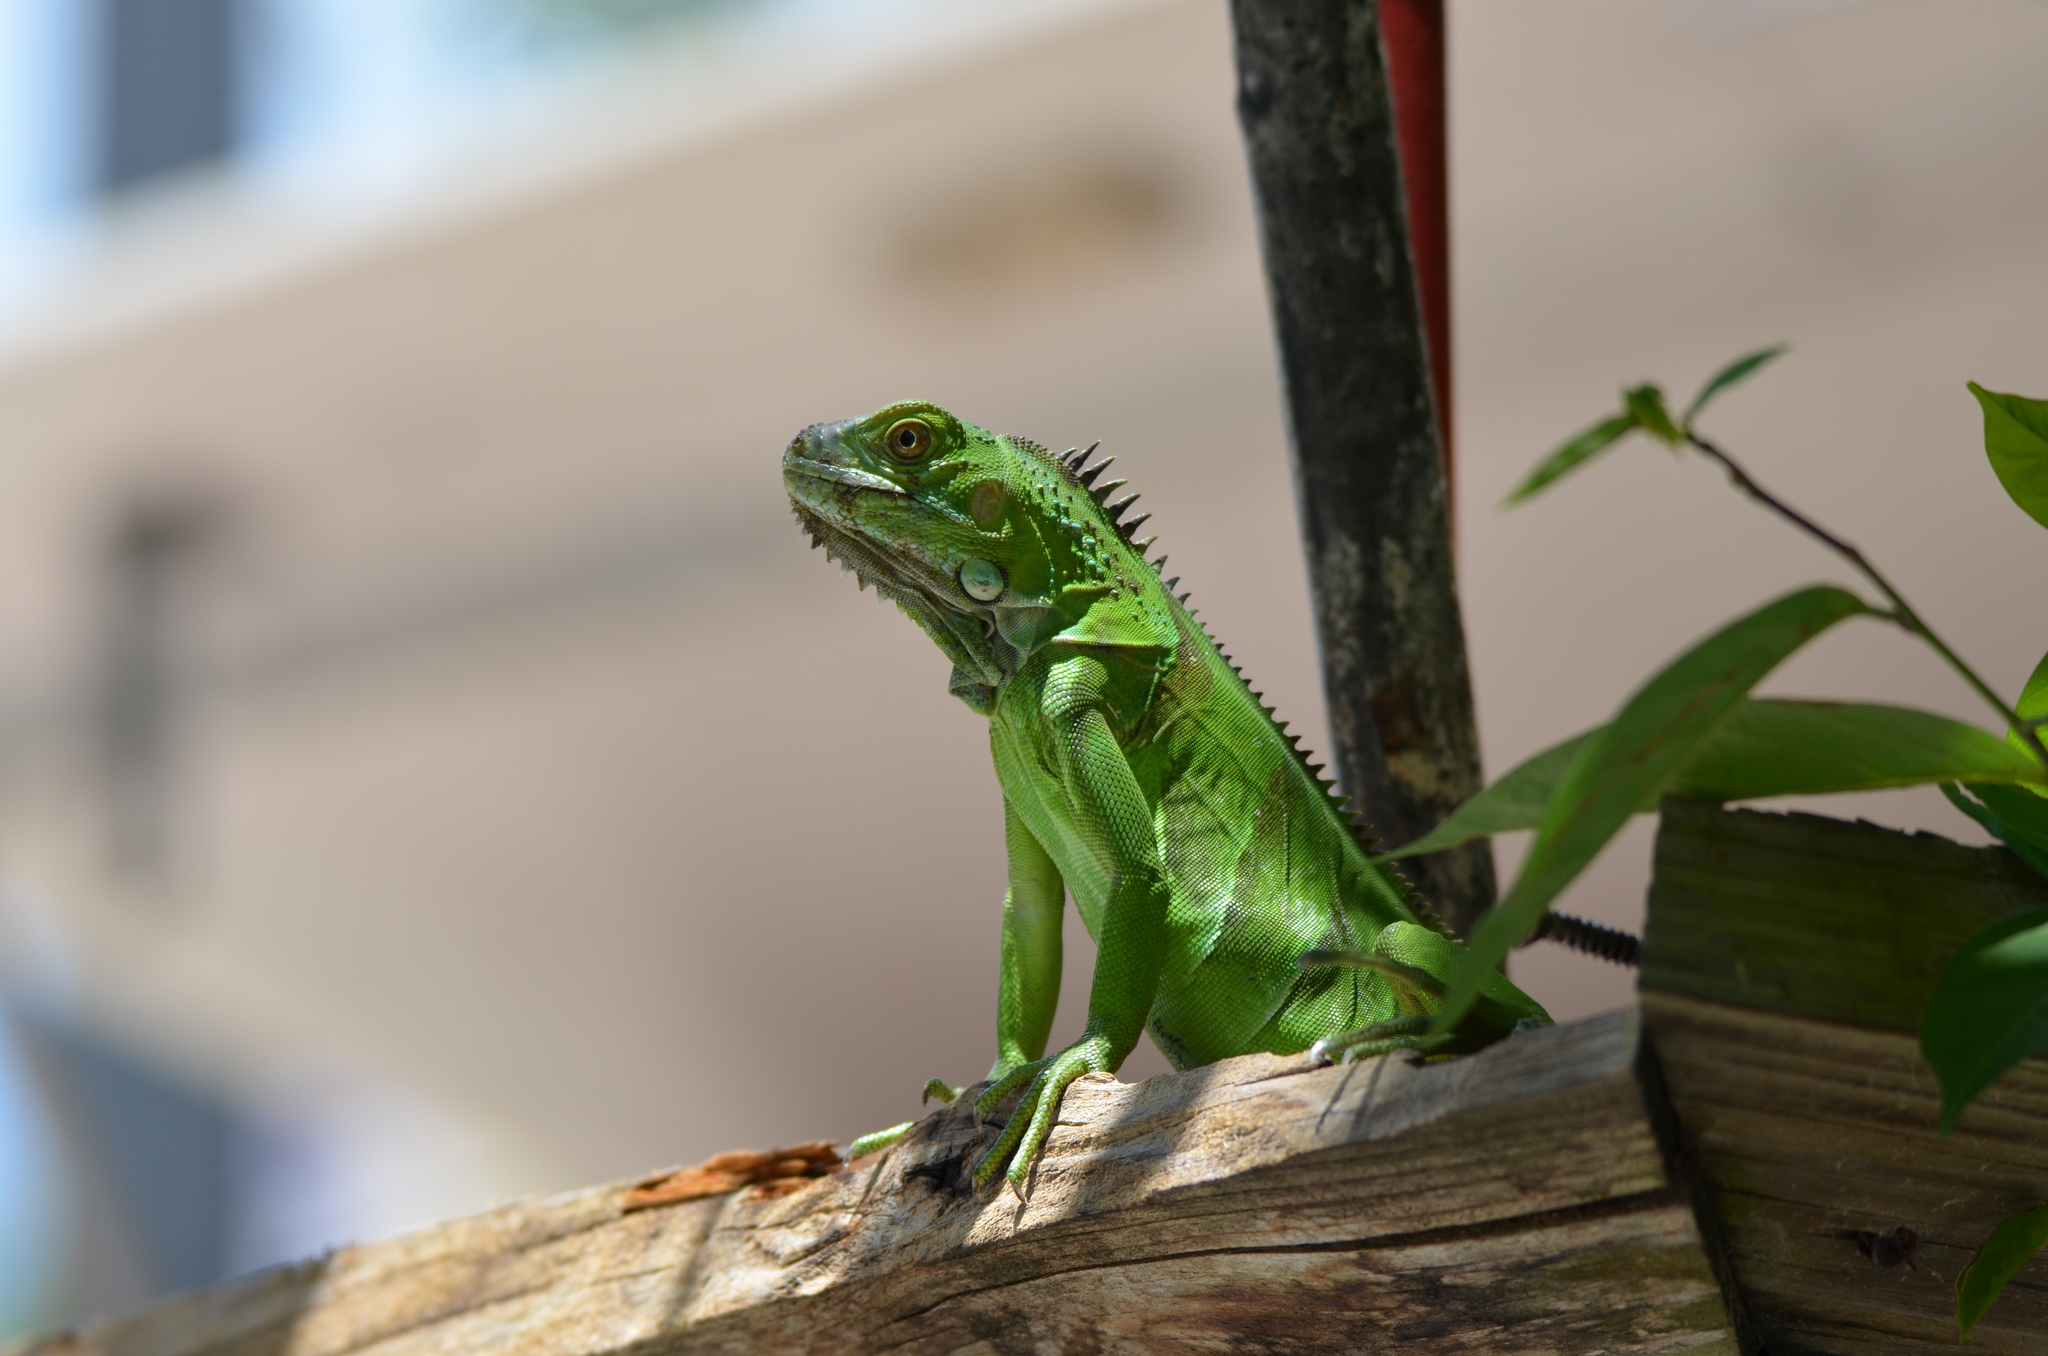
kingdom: Animalia
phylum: Chordata
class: Squamata
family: Iguanidae
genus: Iguana
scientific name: Iguana iguana
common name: Green iguana
